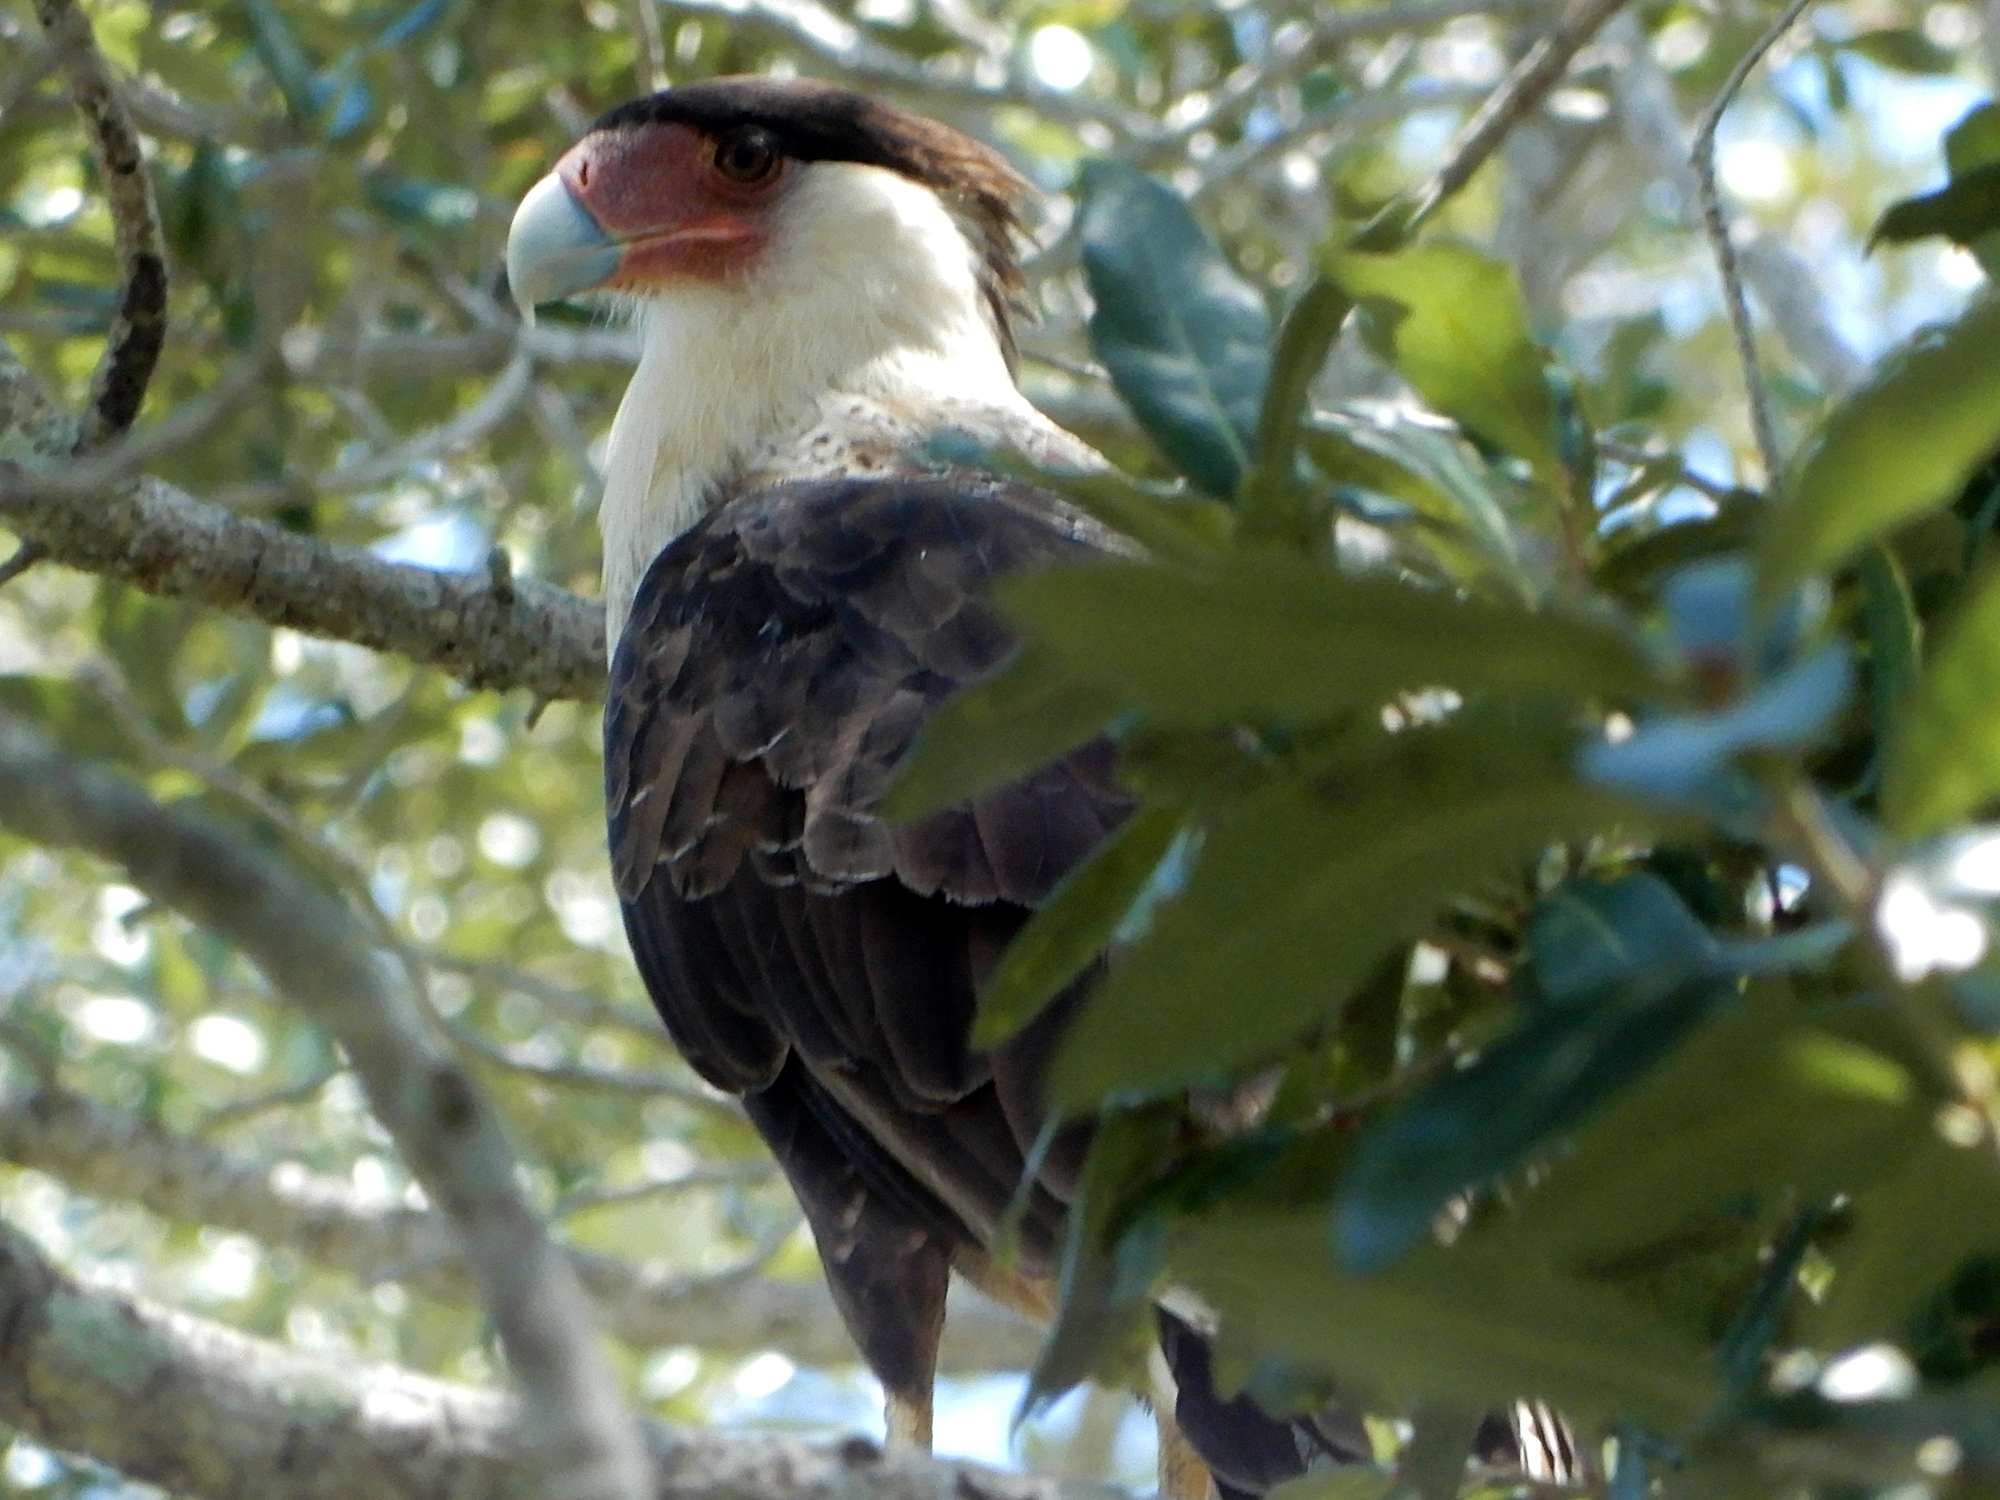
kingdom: Animalia
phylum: Chordata
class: Aves
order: Falconiformes
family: Falconidae
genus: Caracara
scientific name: Caracara plancus
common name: Southern caracara
